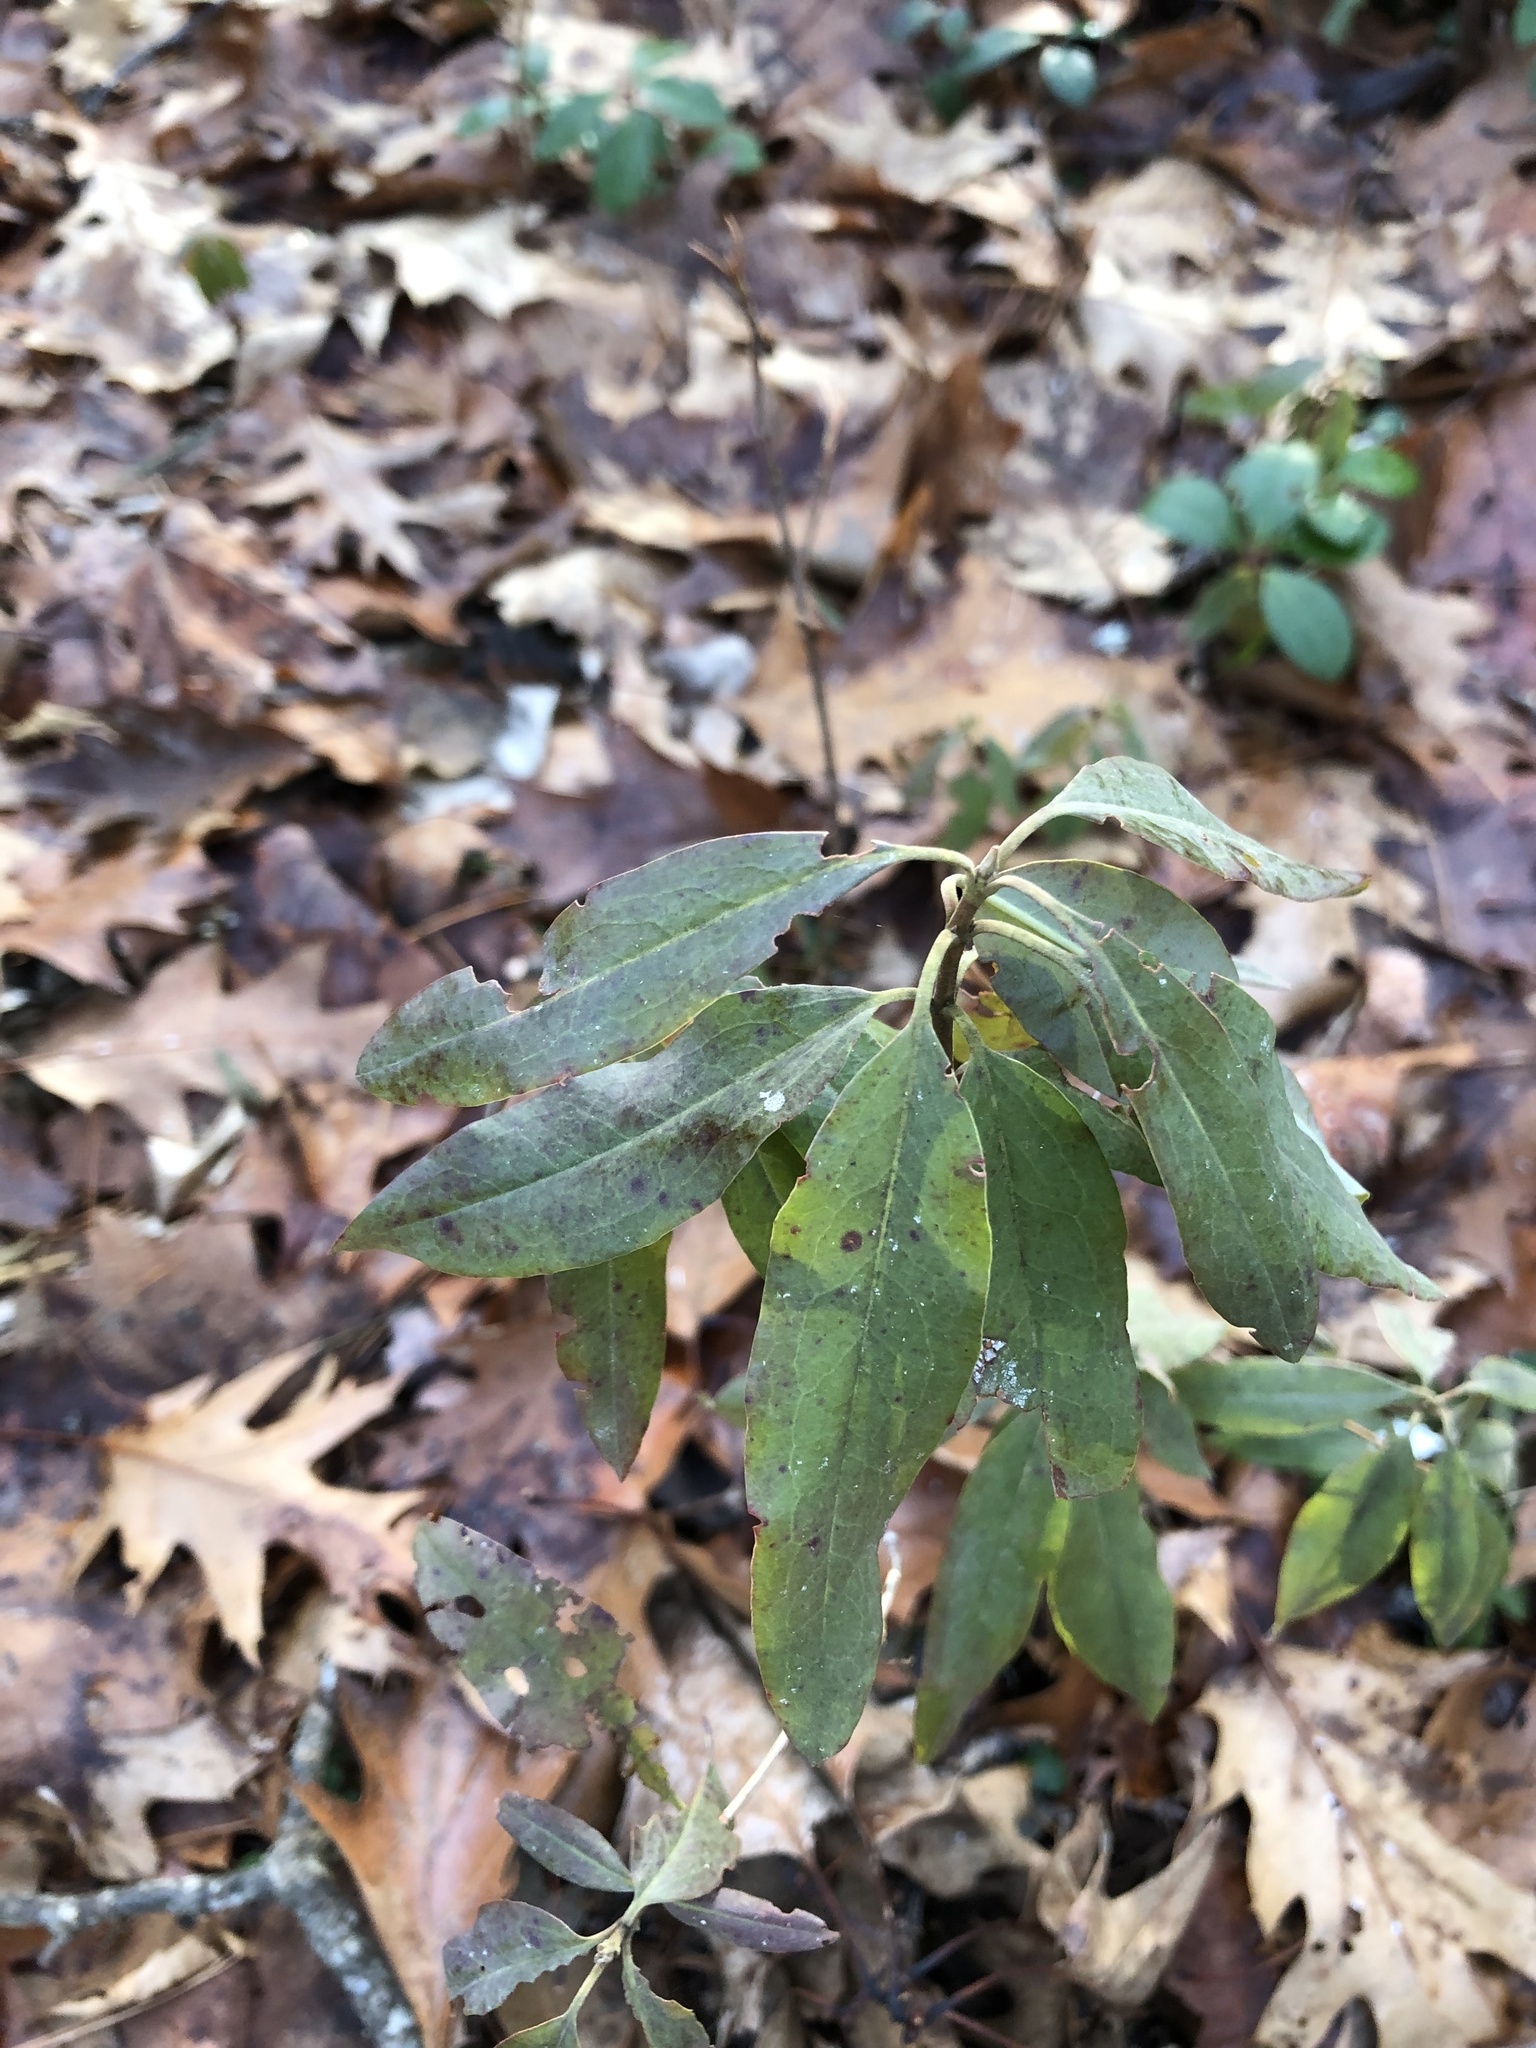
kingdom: Plantae
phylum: Tracheophyta
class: Magnoliopsida
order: Ericales
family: Ericaceae
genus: Kalmia
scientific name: Kalmia angustifolia
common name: Sheep-laurel
